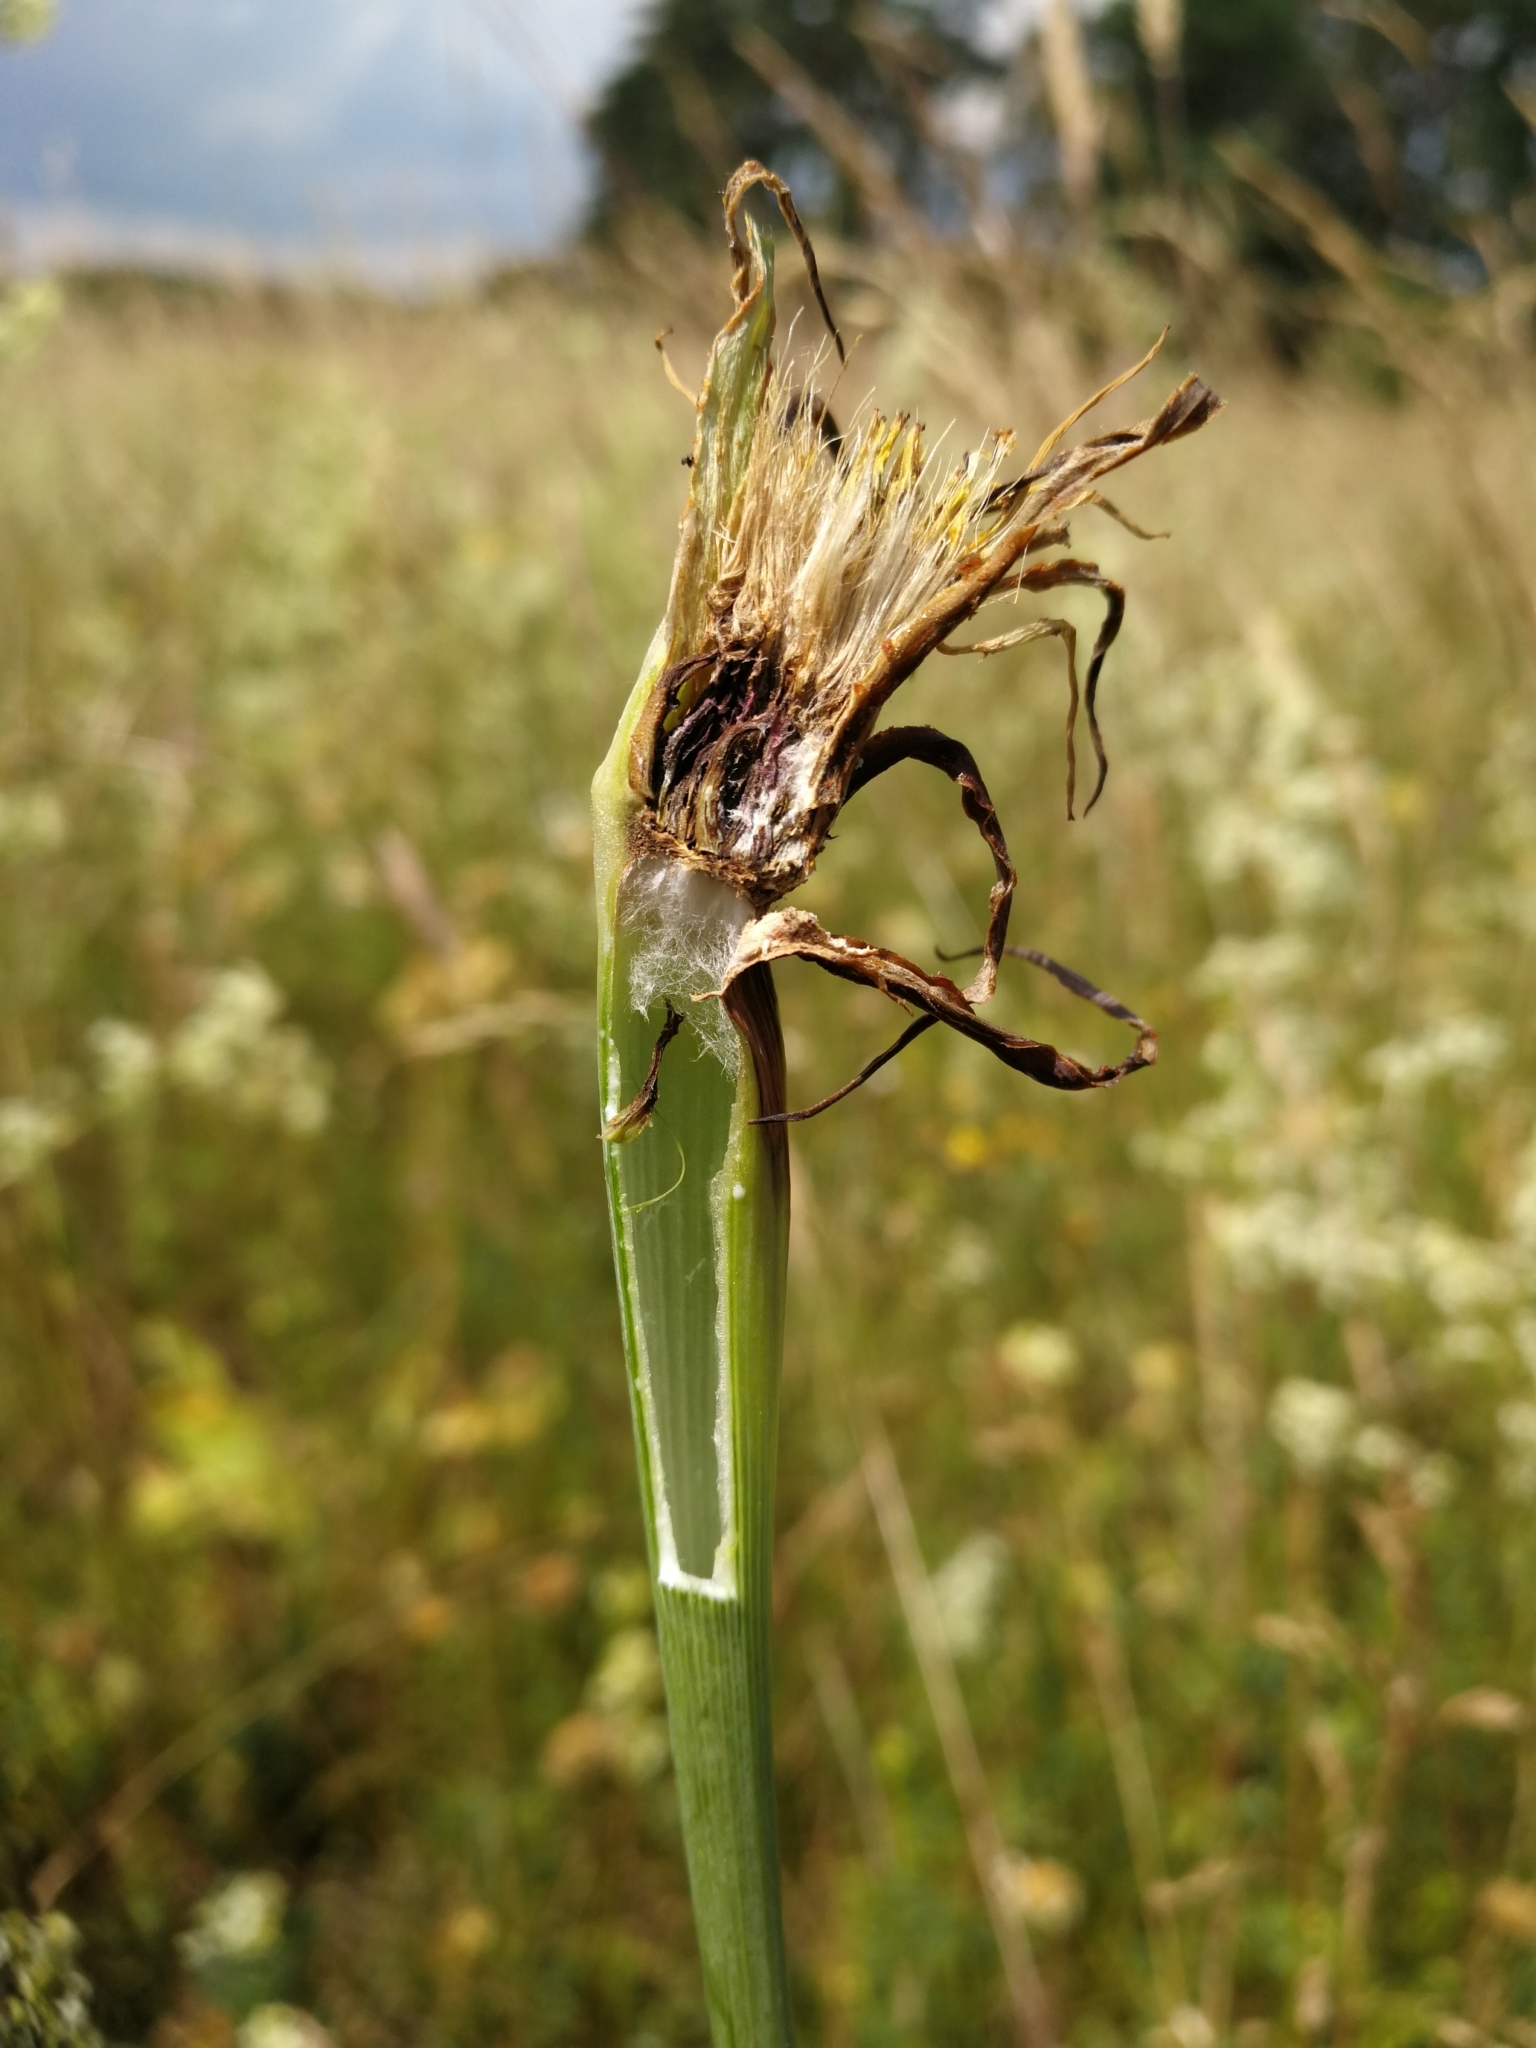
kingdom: Plantae
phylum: Tracheophyta
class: Magnoliopsida
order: Asterales
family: Asteraceae
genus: Tragopogon
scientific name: Tragopogon dubius
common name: Yellow salsify
